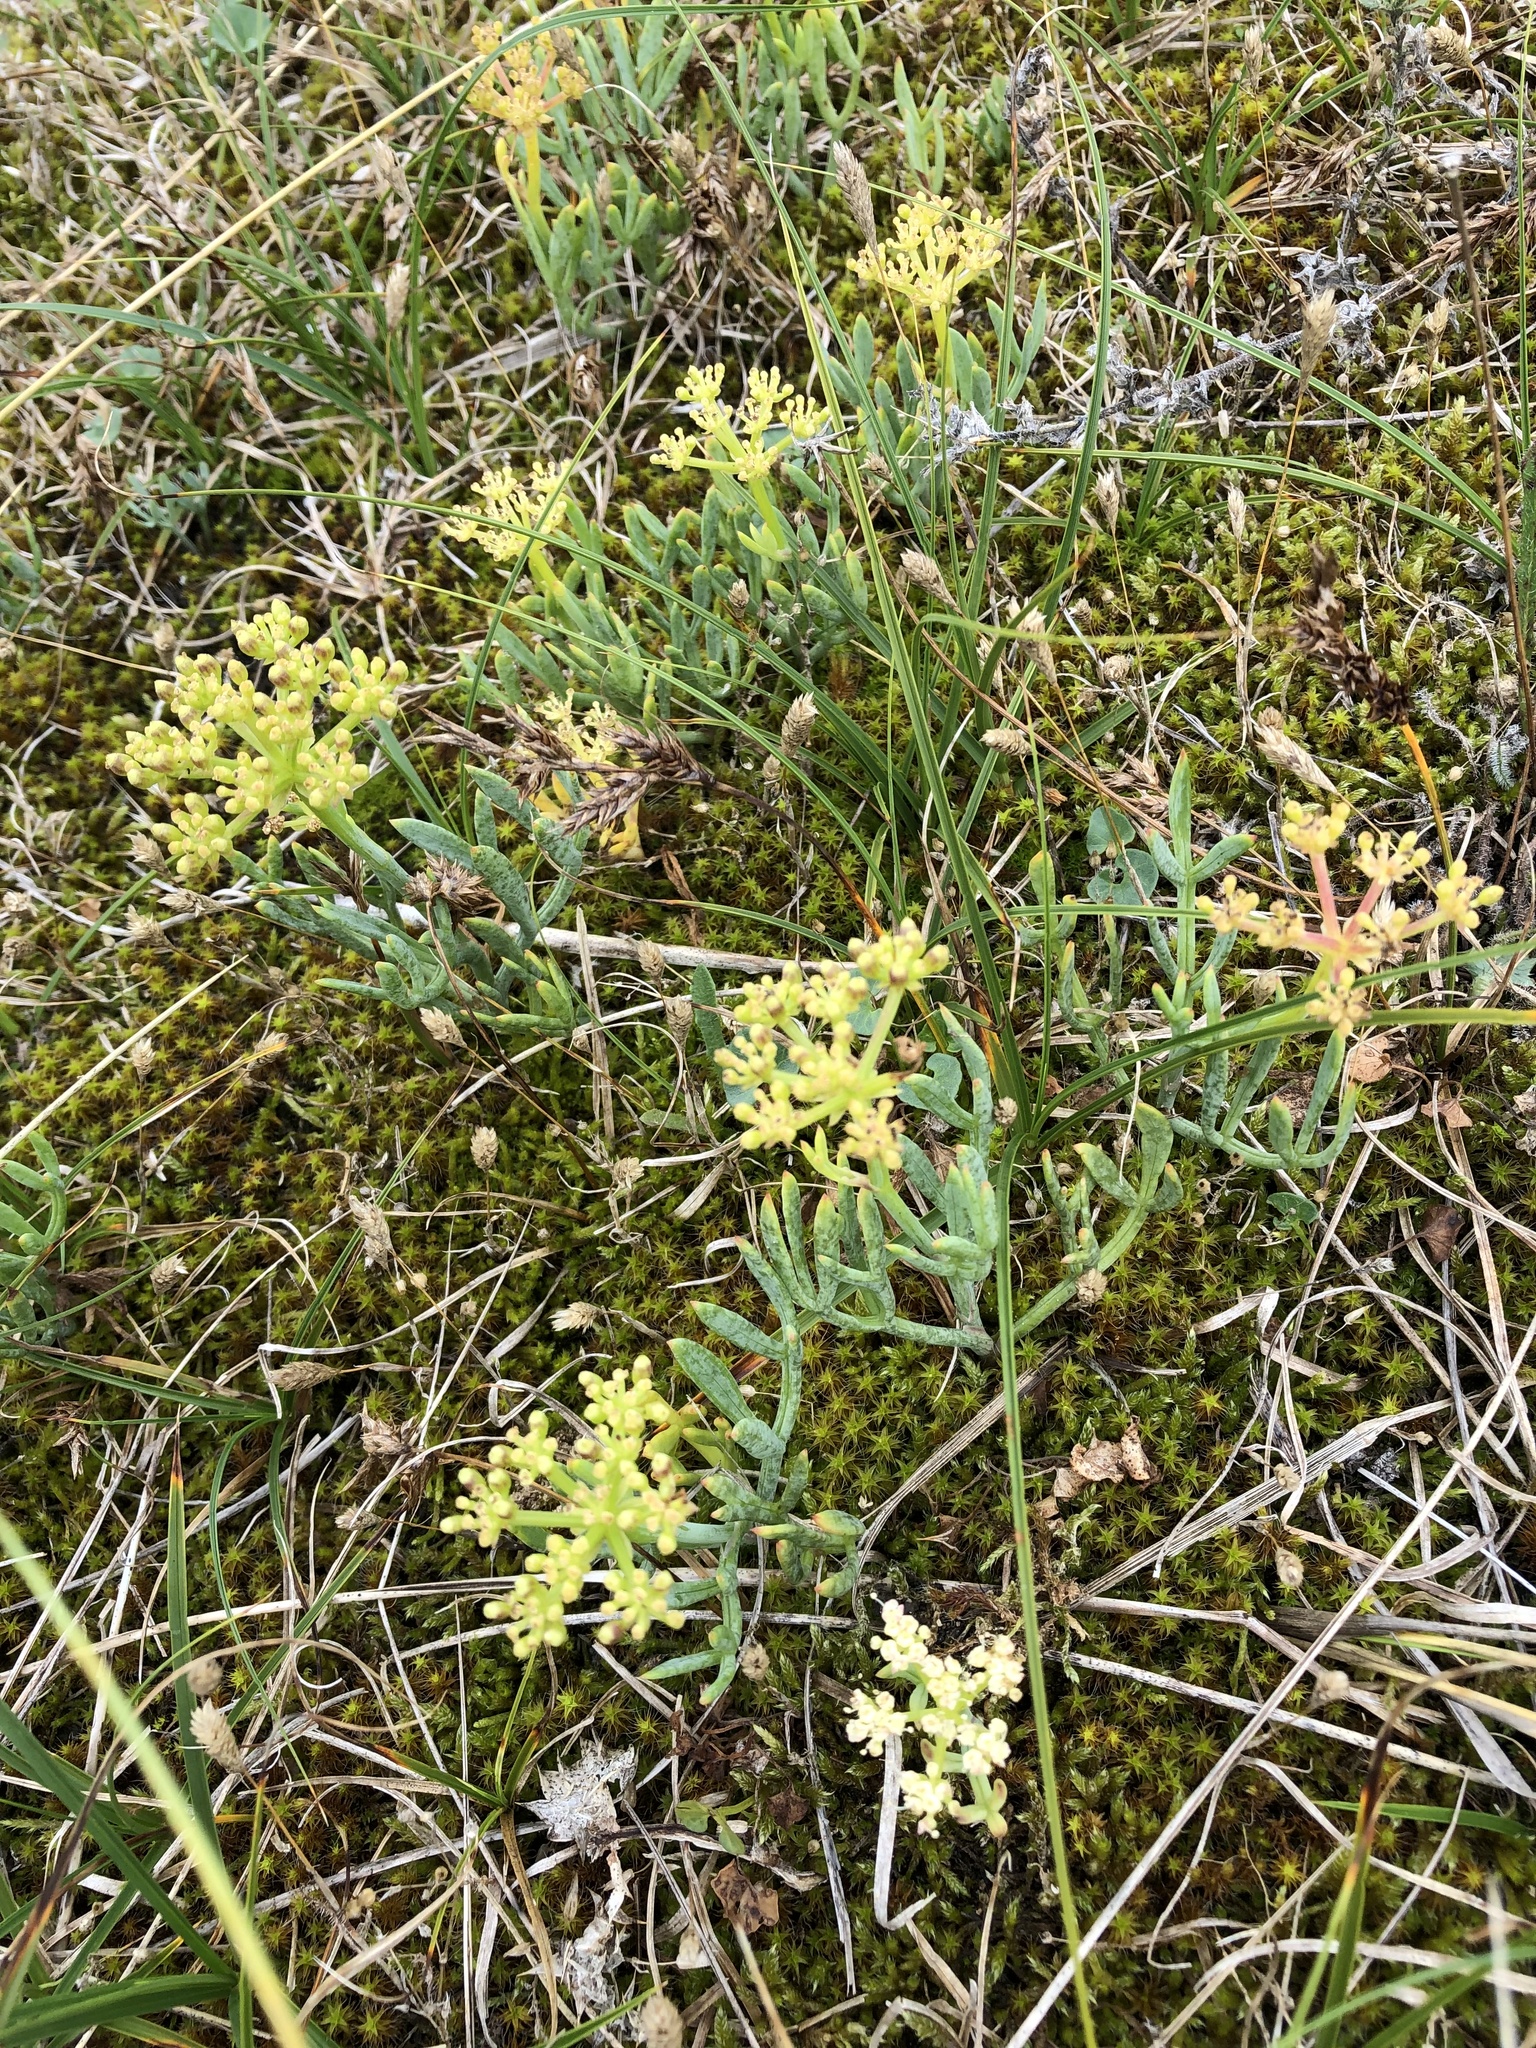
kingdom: Plantae
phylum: Tracheophyta
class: Magnoliopsida
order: Apiales
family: Apiaceae
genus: Crithmum
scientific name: Crithmum maritimum
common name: Rock samphire
